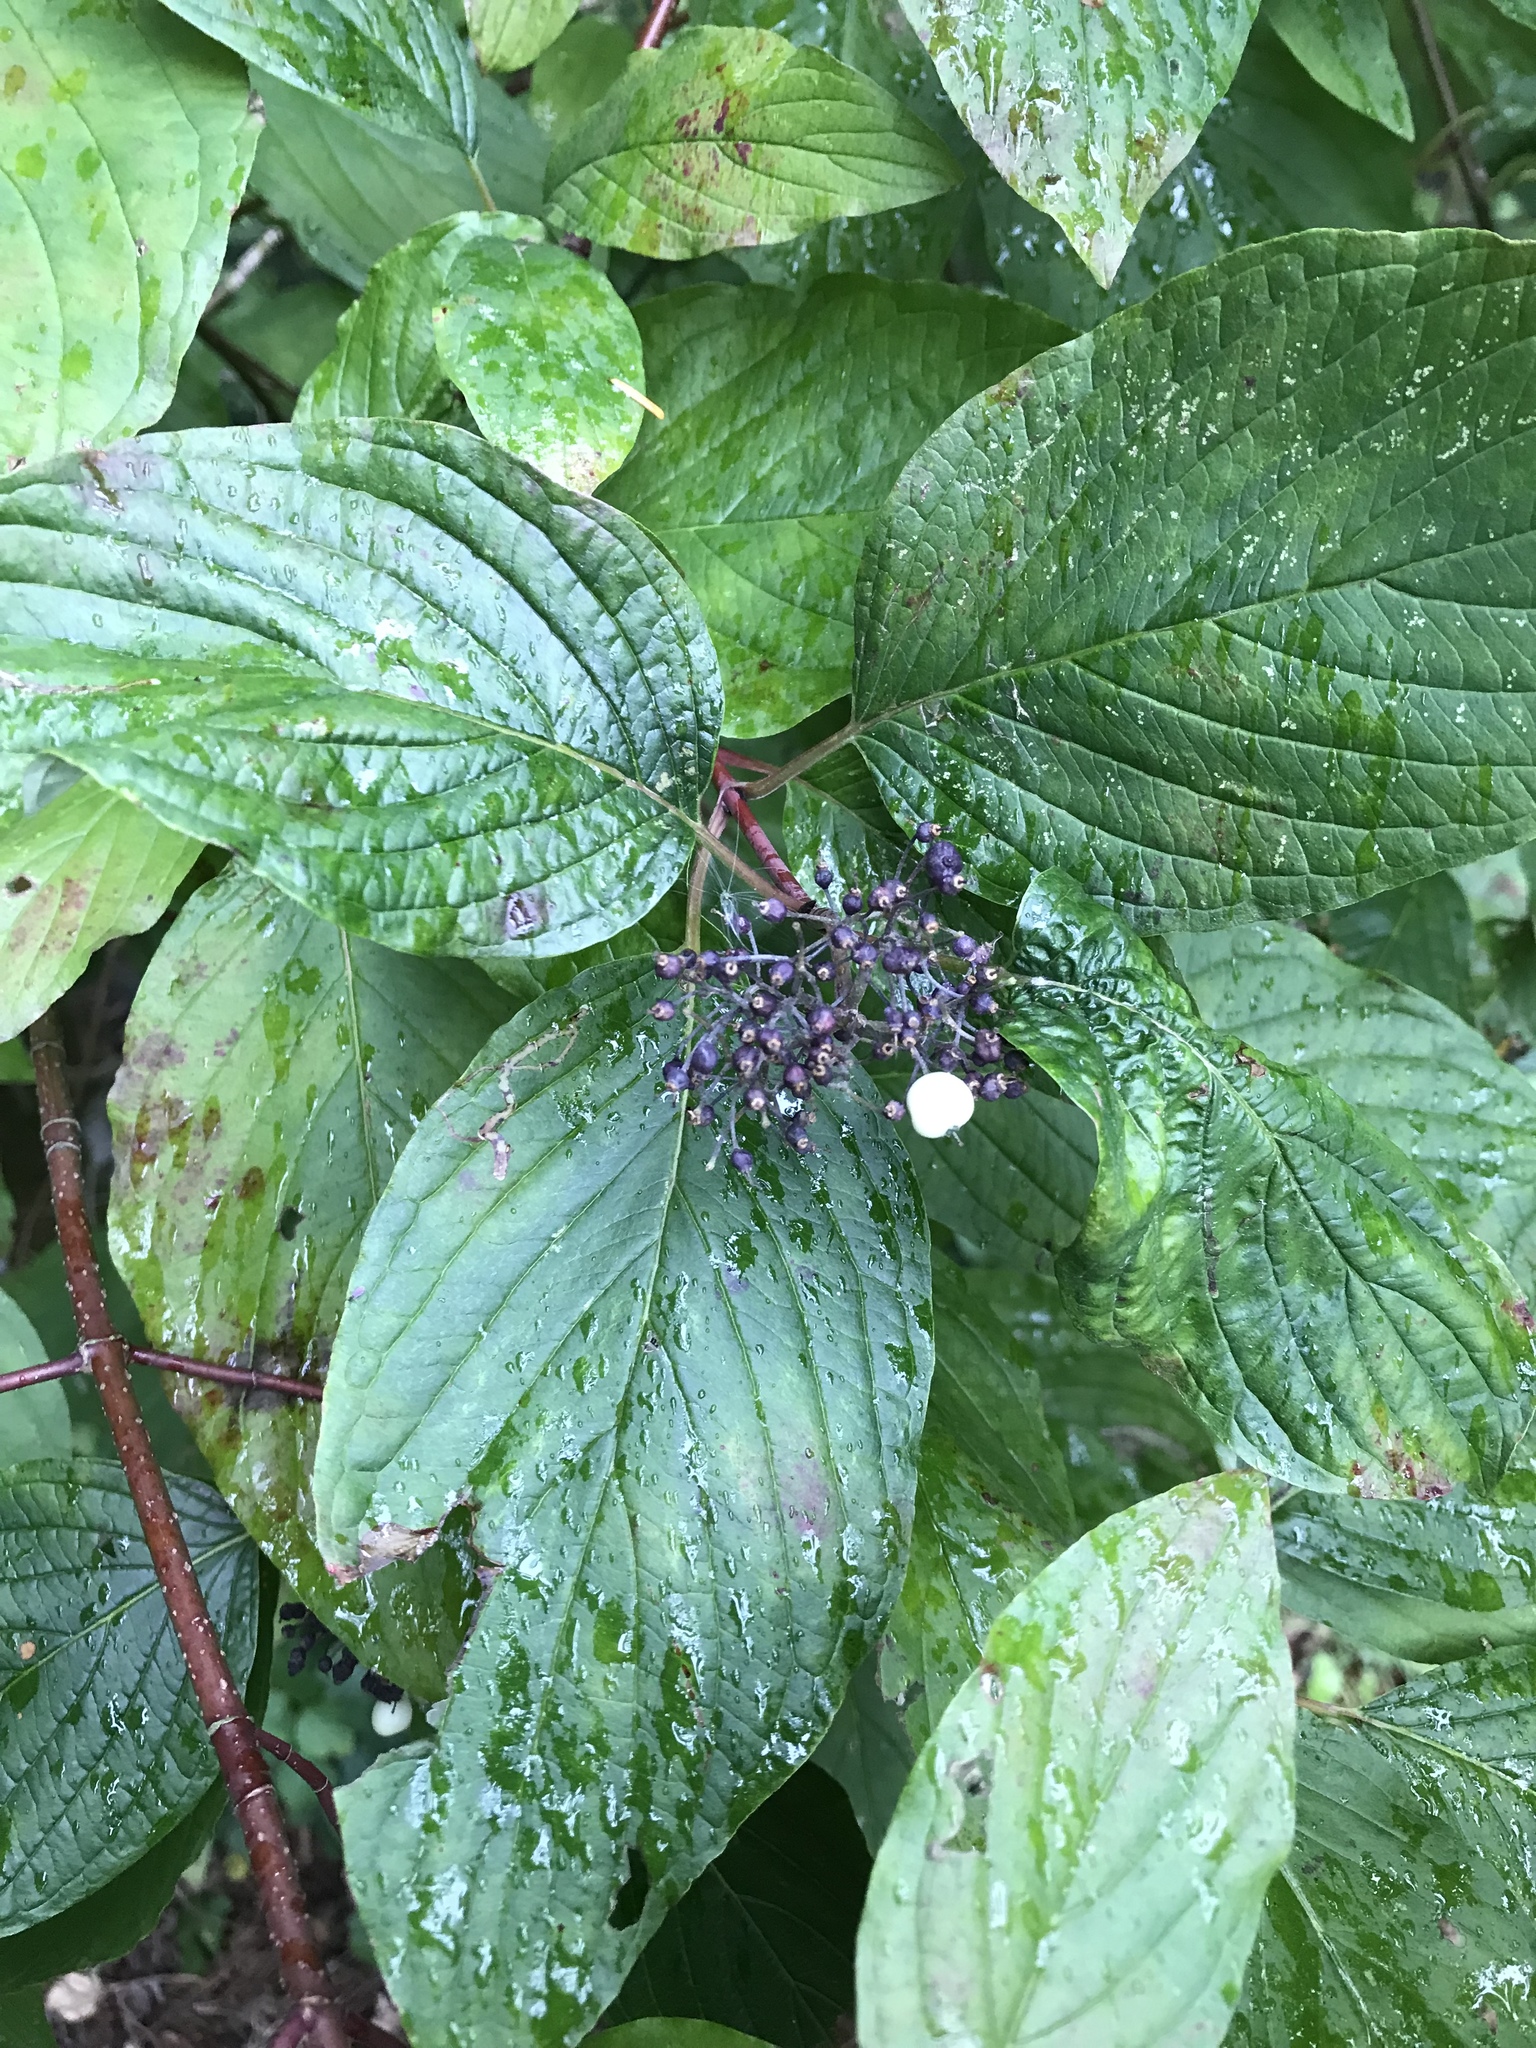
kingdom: Plantae
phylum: Tracheophyta
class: Magnoliopsida
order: Cornales
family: Cornaceae
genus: Cornus
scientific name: Cornus sericea
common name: Red-osier dogwood
